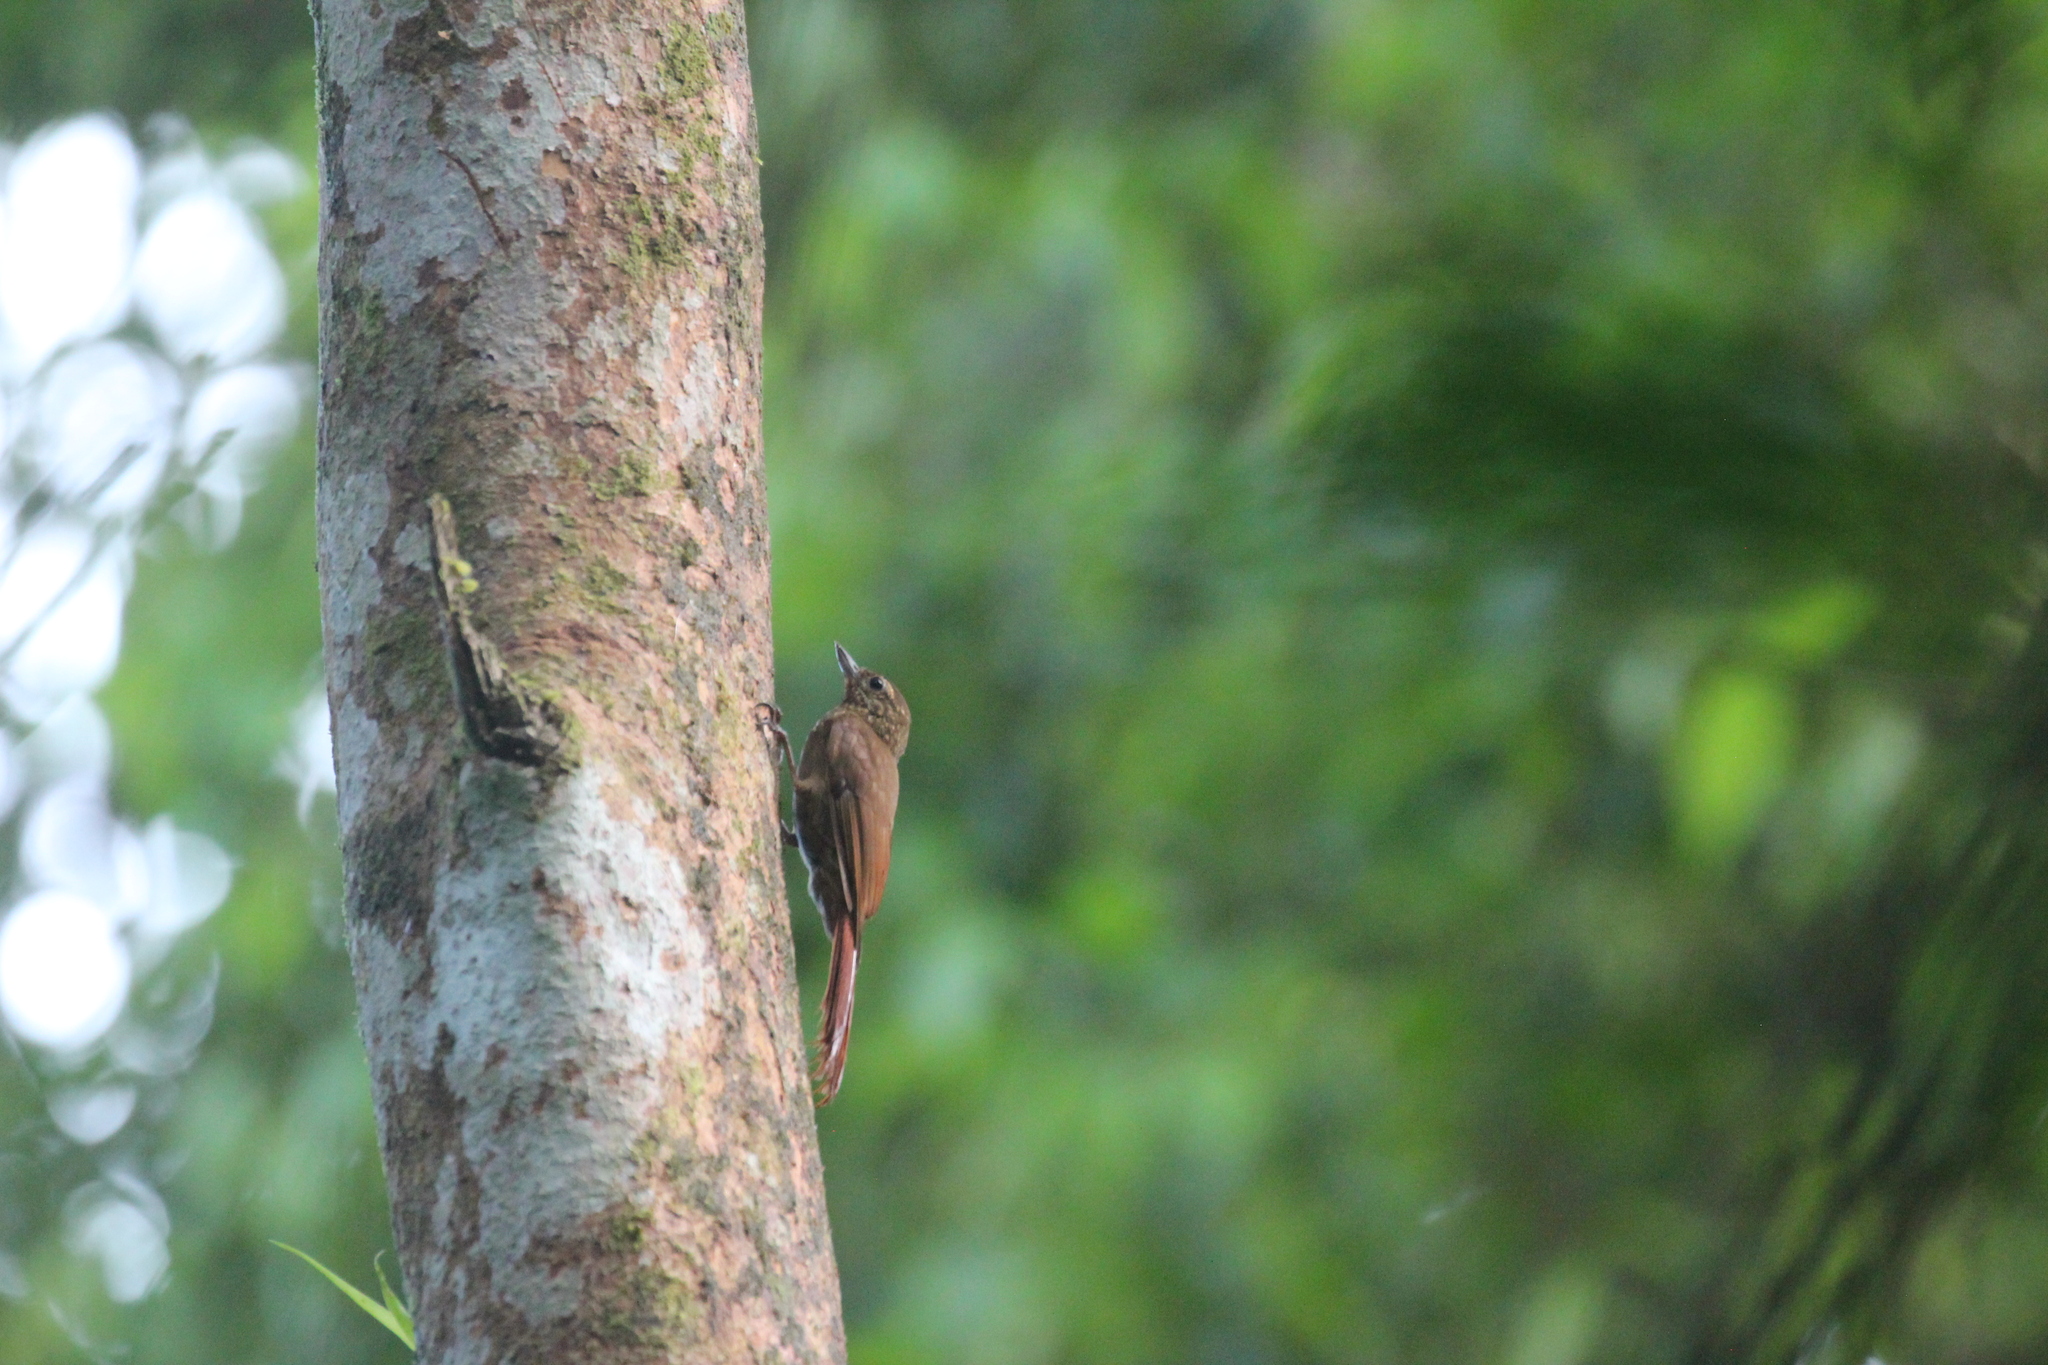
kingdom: Animalia
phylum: Chordata
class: Aves
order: Passeriformes
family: Furnariidae
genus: Glyphorynchus
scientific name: Glyphorynchus spirurus
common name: Wedge-billed woodcreeper
